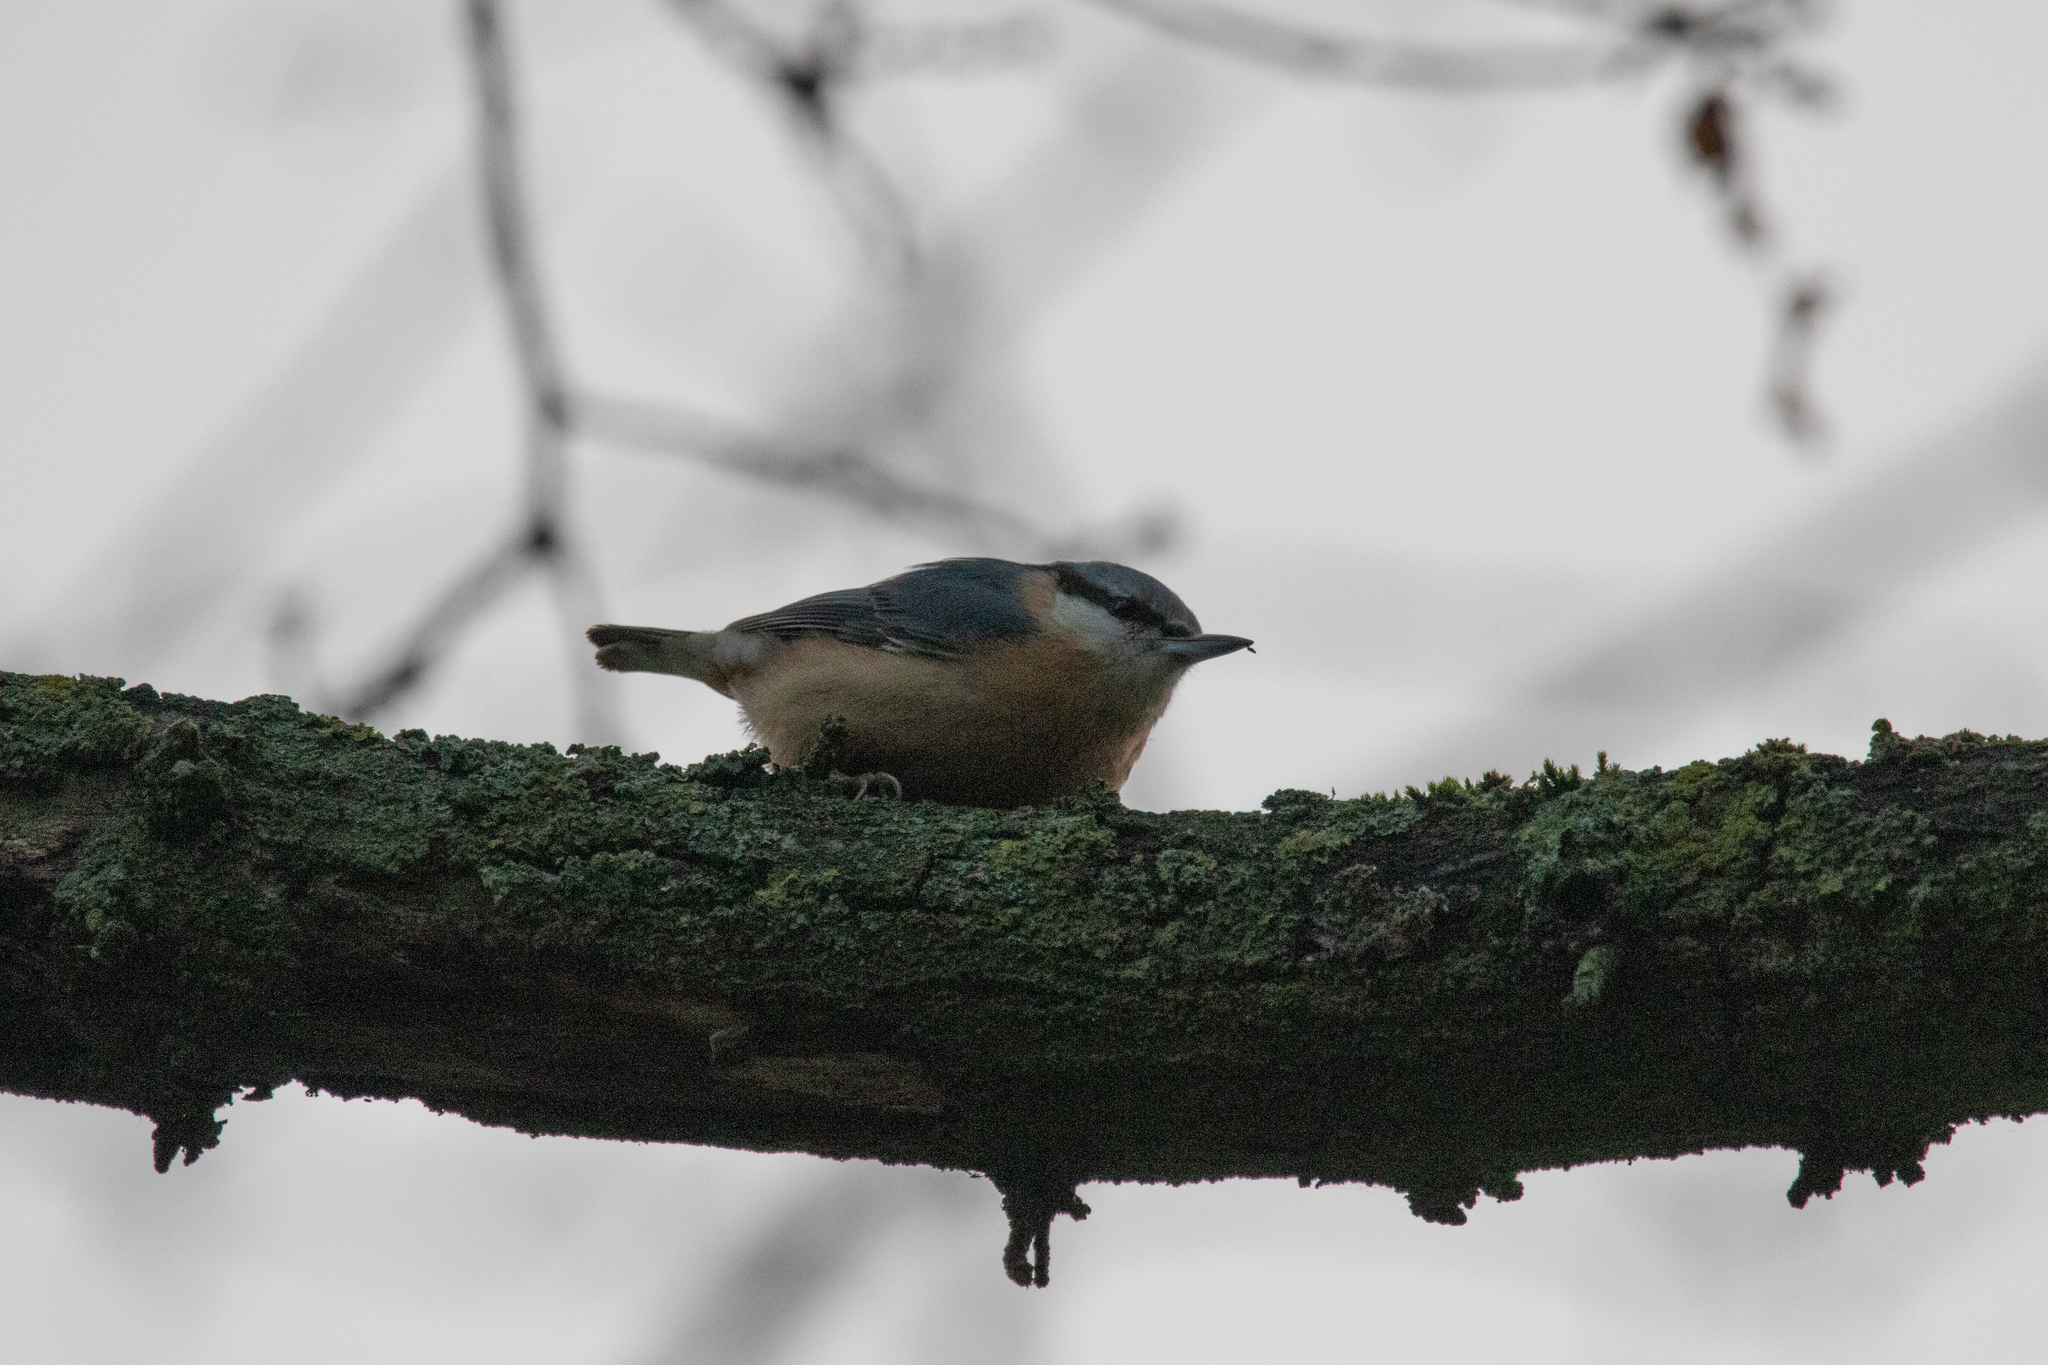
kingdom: Animalia
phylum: Chordata
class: Aves
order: Passeriformes
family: Sittidae
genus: Sitta
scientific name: Sitta europaea
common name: Eurasian nuthatch
